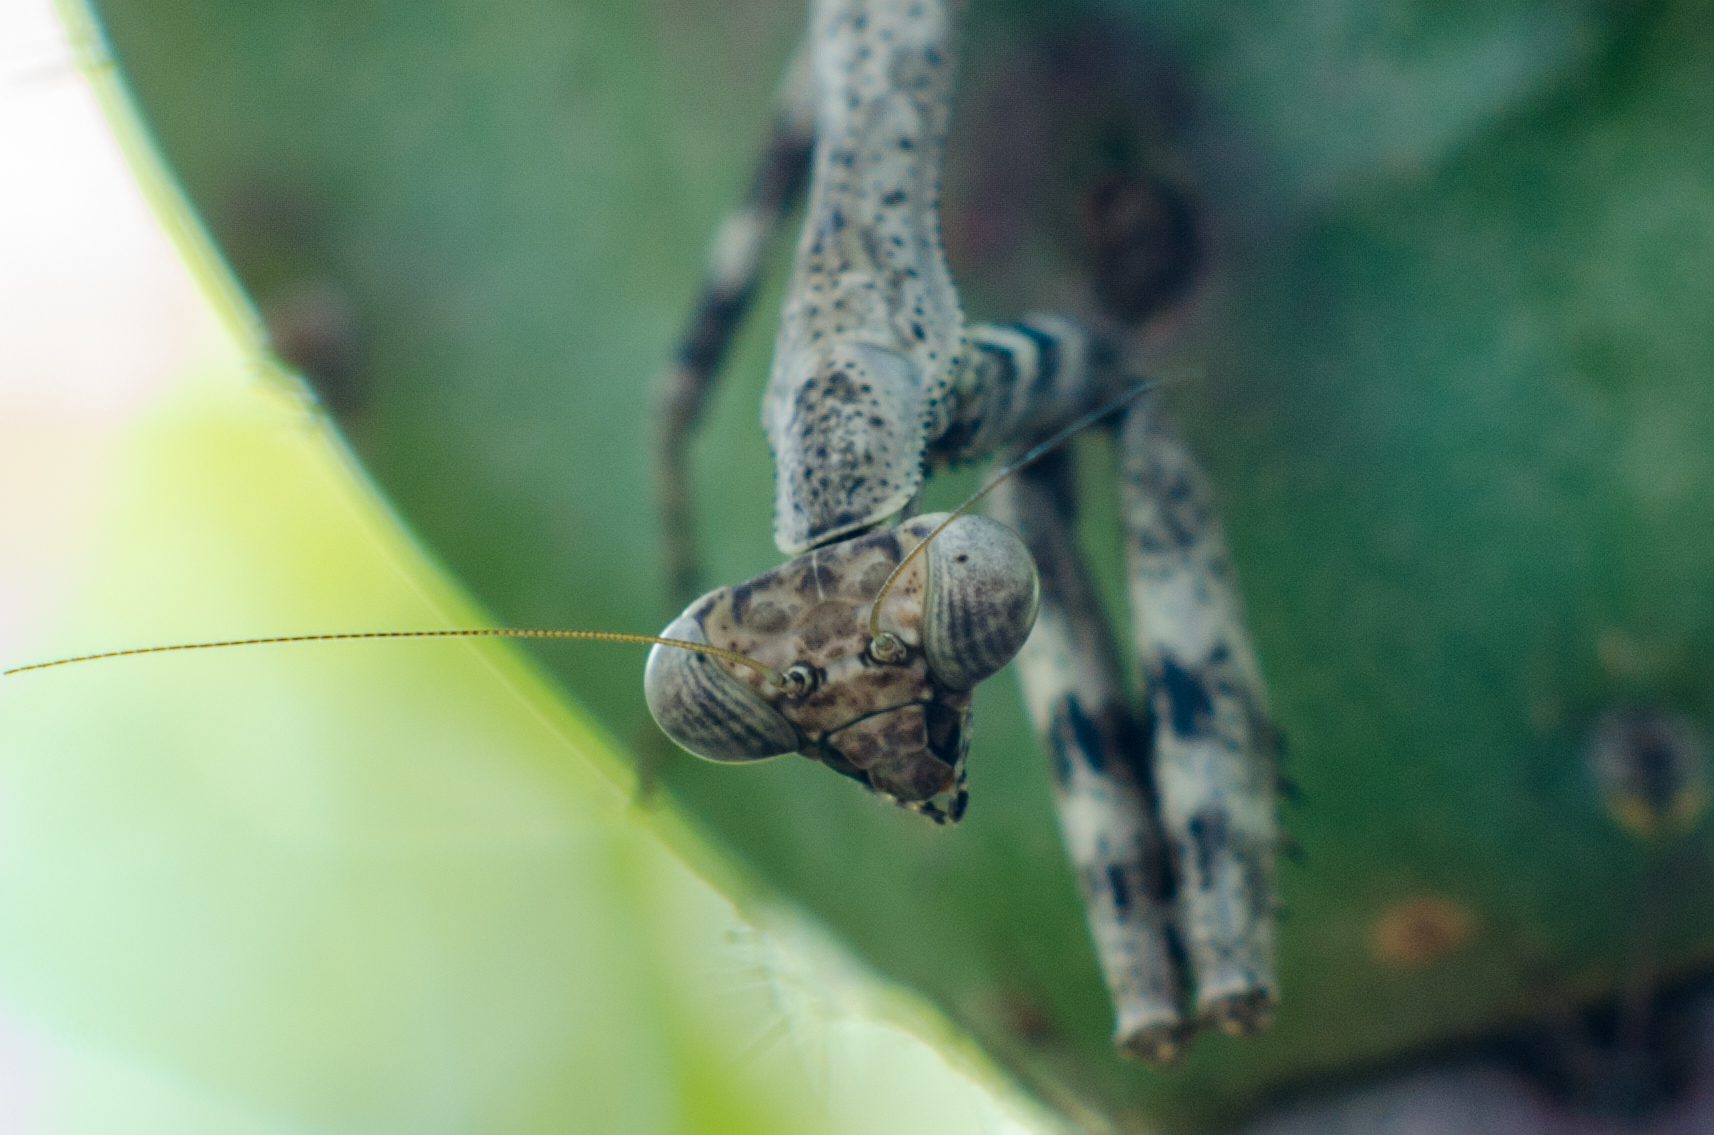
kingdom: Animalia
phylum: Arthropoda
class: Insecta
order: Mantodea
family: Mantidae
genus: Stagmomantis
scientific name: Stagmomantis carolina
